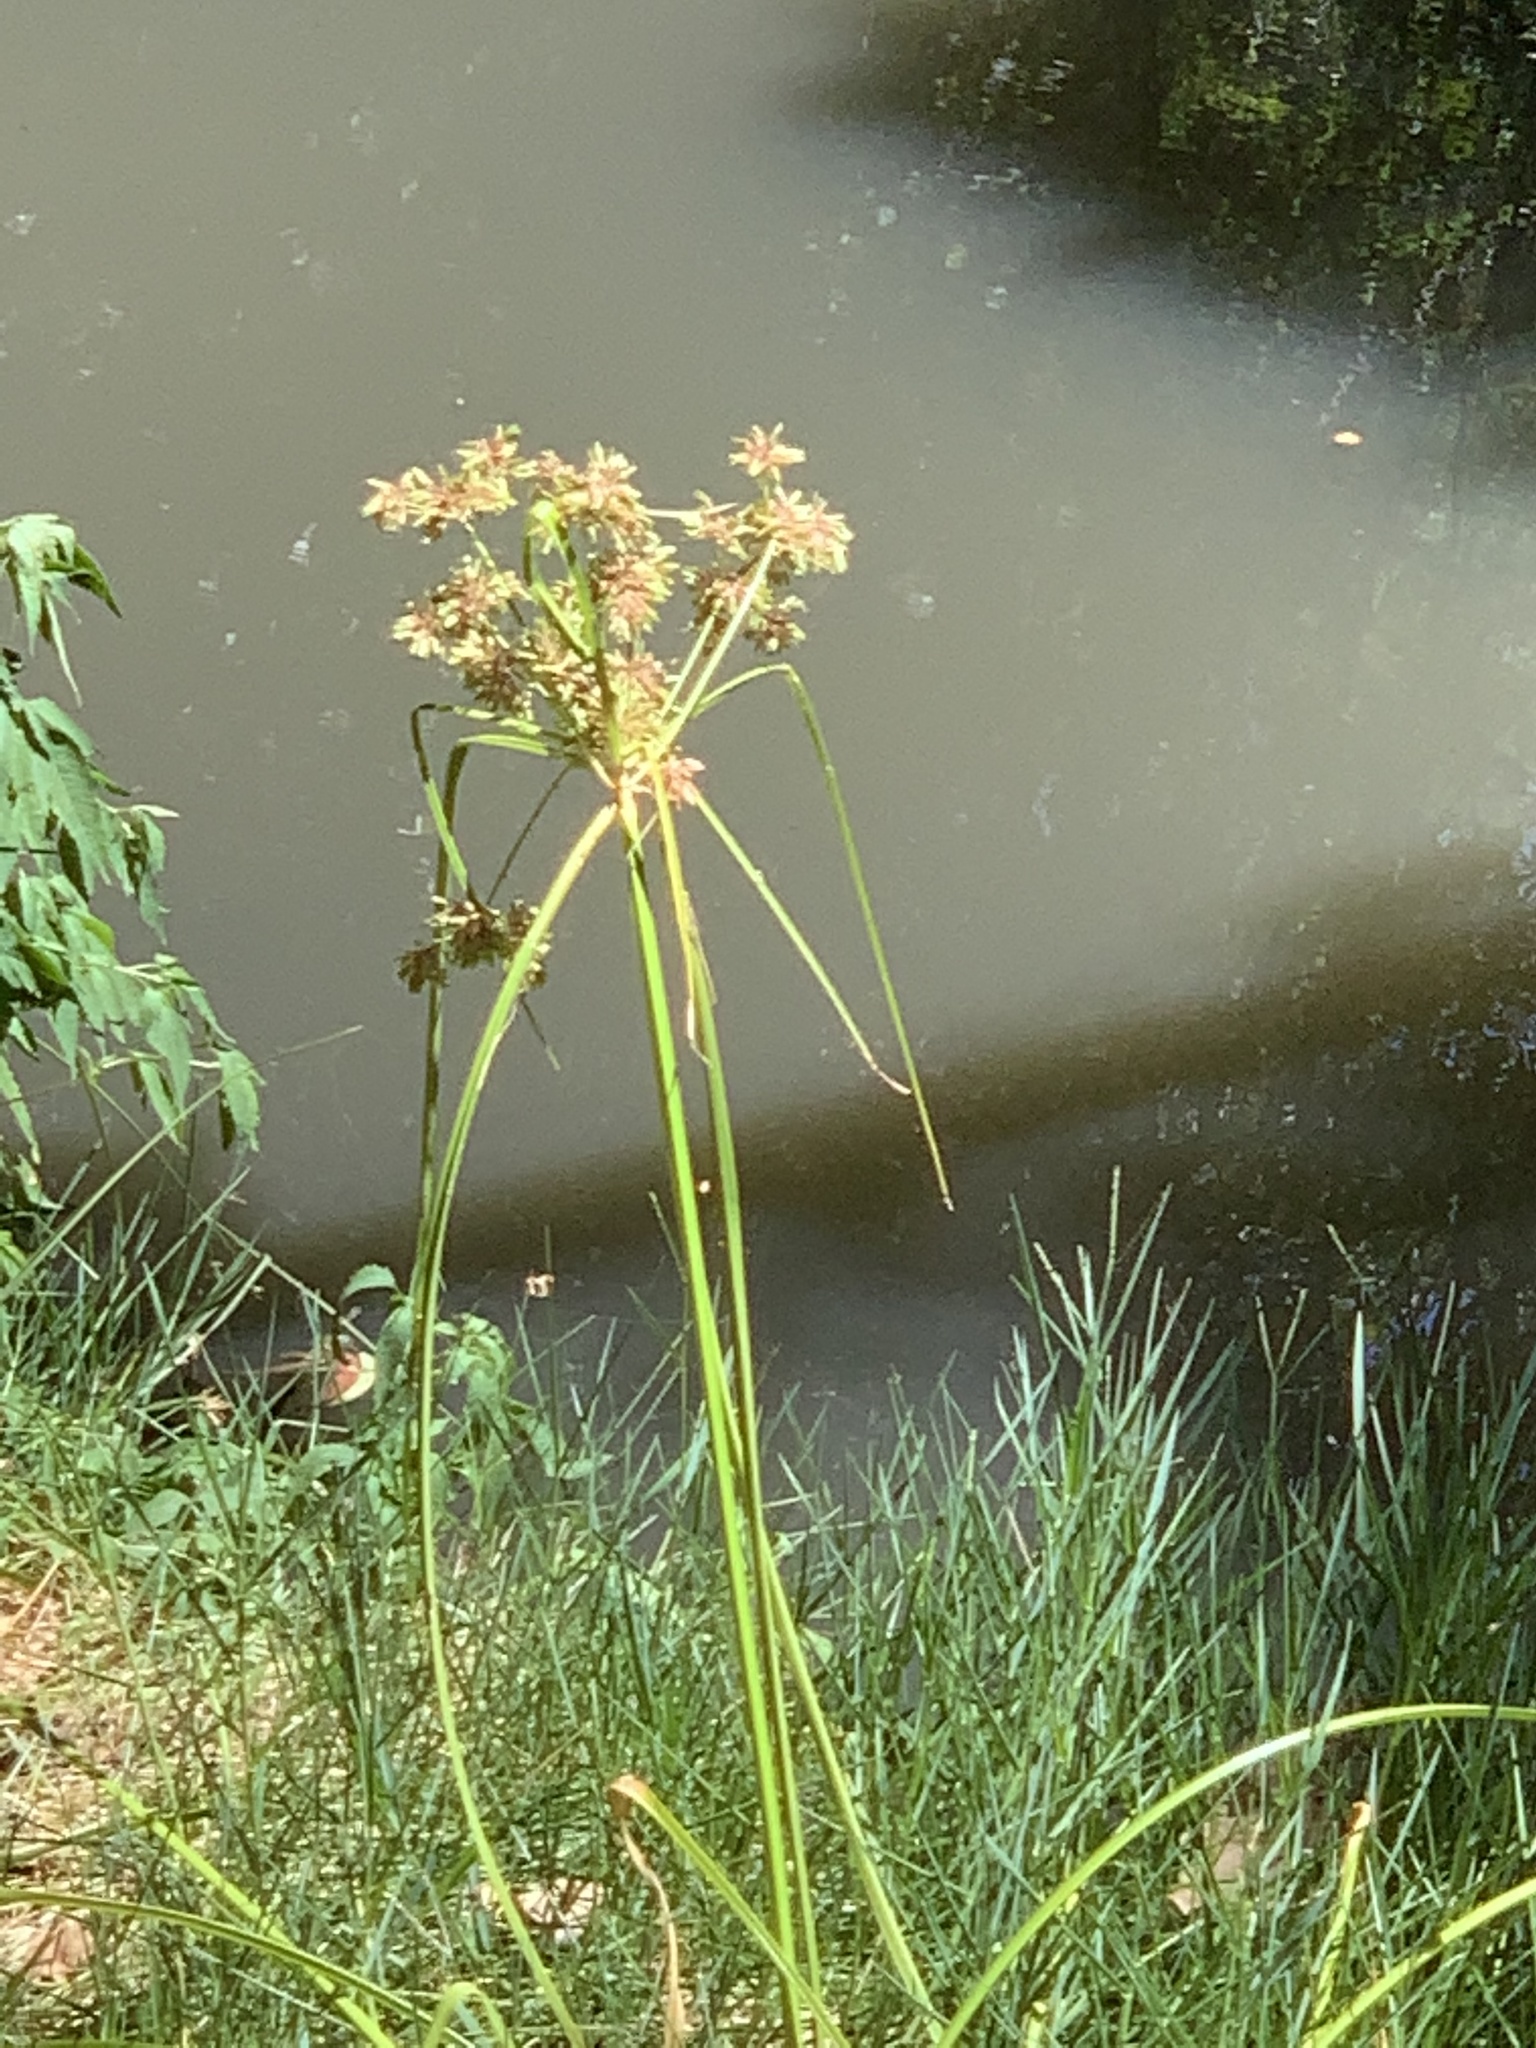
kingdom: Plantae
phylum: Tracheophyta
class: Liliopsida
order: Poales
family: Cyperaceae
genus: Cyperus
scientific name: Cyperus eragrostis
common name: Tall flatsedge
